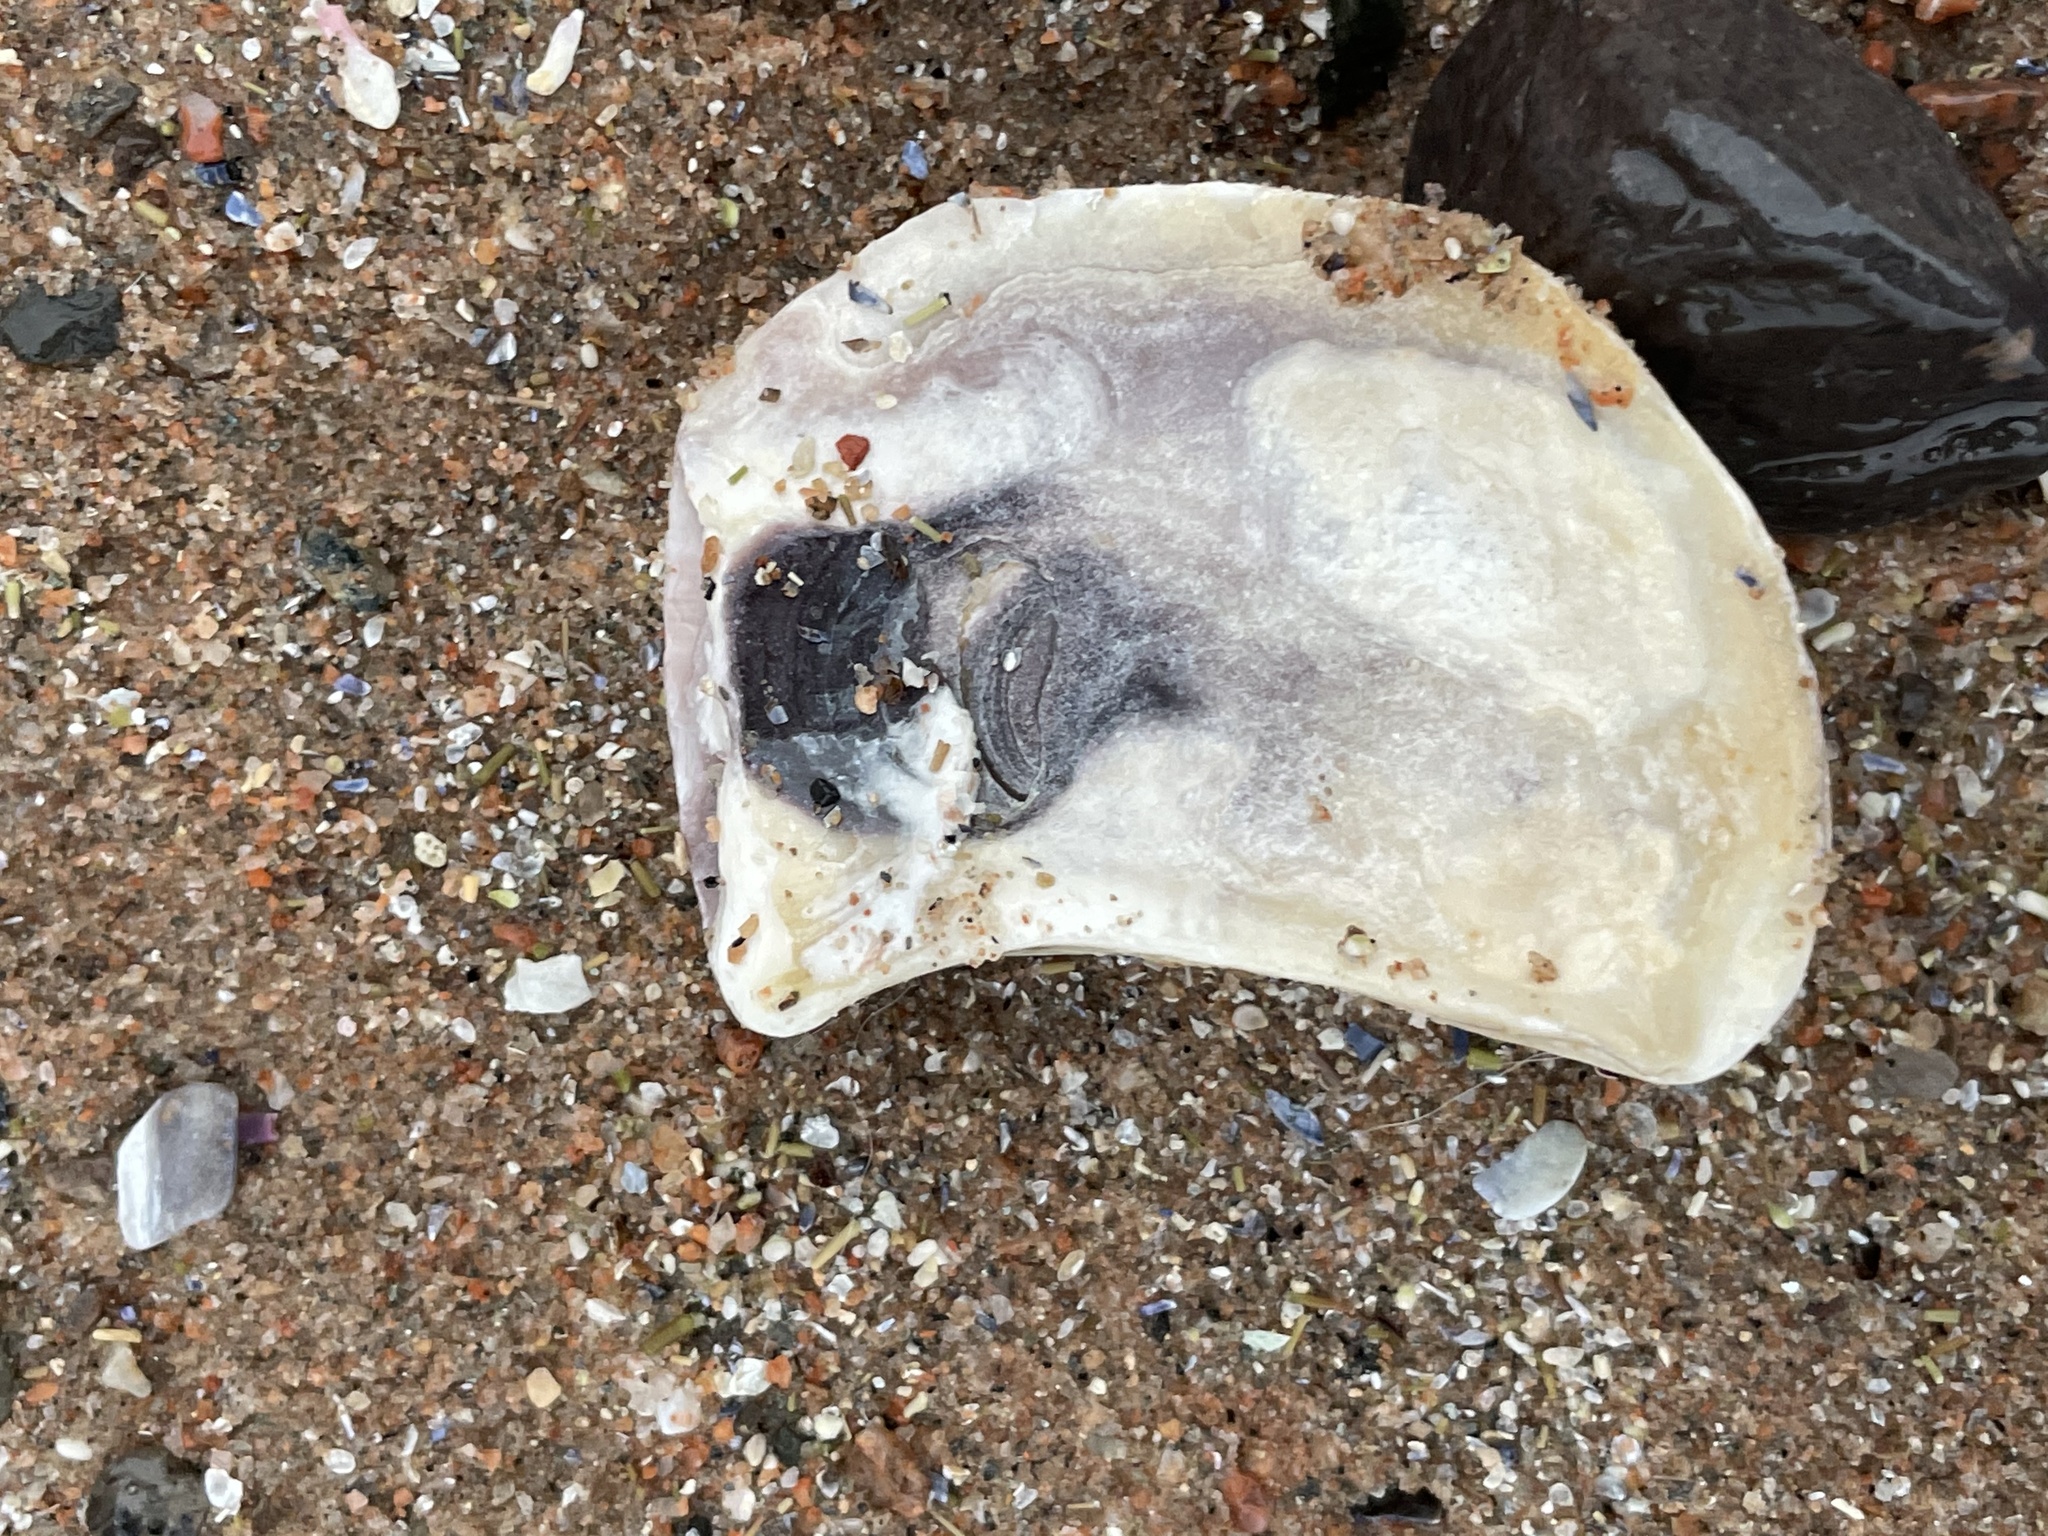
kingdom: Animalia
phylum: Mollusca
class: Bivalvia
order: Ostreida
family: Ostreidae
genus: Crassostrea
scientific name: Crassostrea virginica
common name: American oyster
